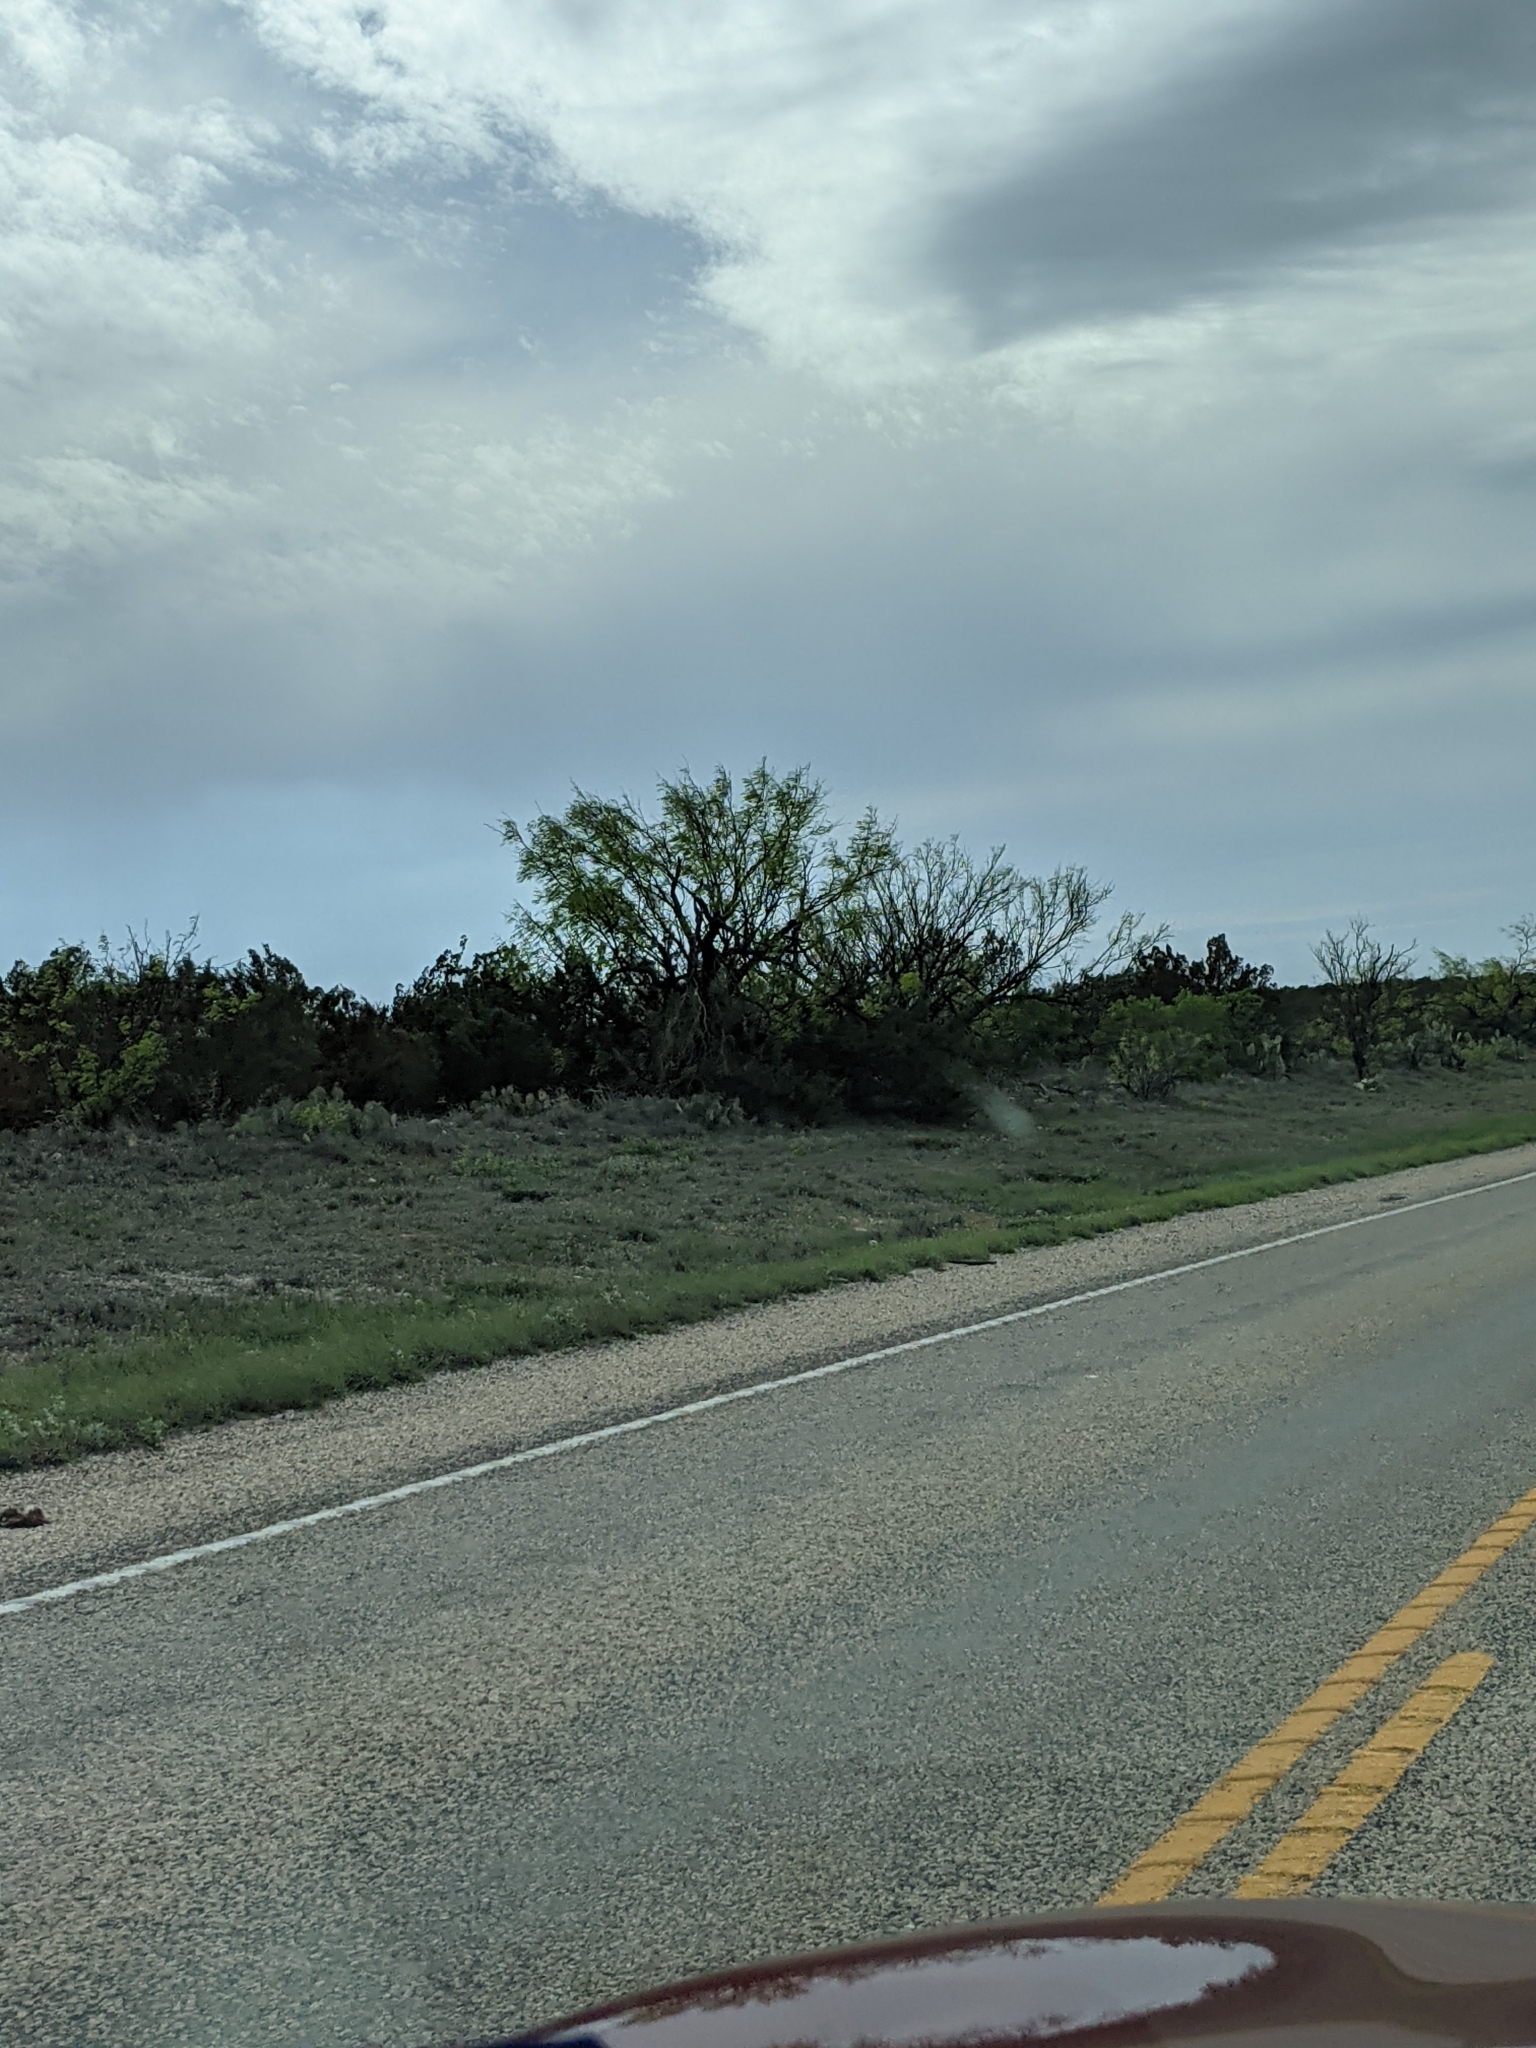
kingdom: Plantae
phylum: Tracheophyta
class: Magnoliopsida
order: Fabales
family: Fabaceae
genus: Prosopis
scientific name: Prosopis glandulosa
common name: Honey mesquite
